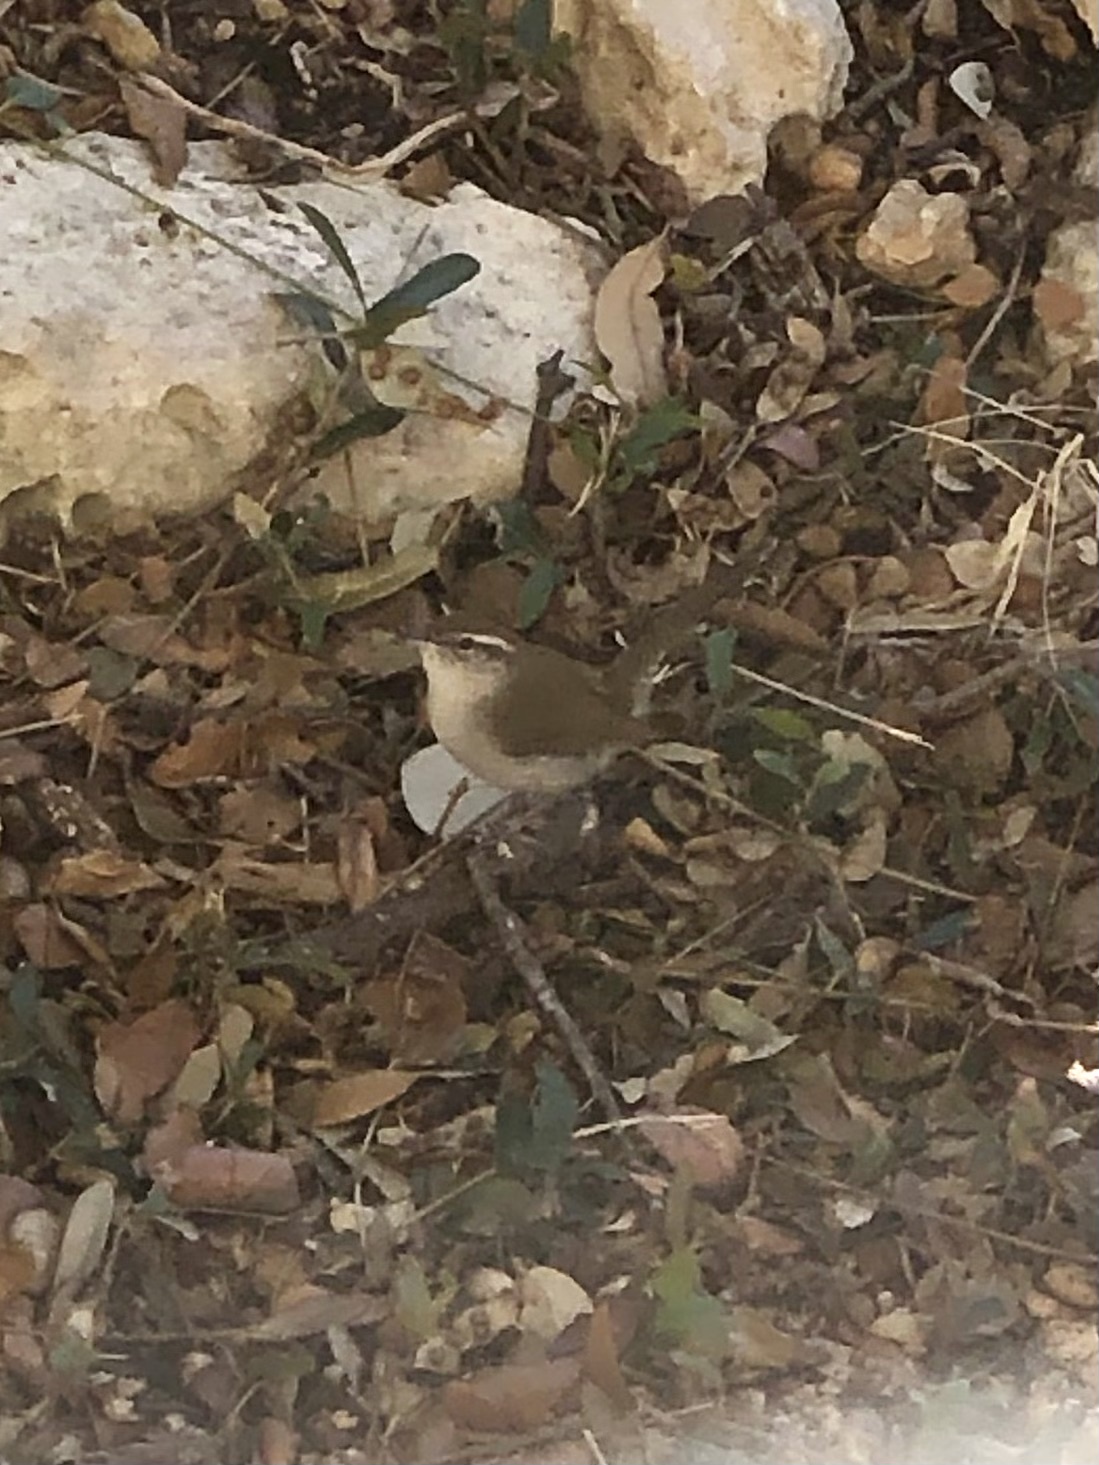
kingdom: Animalia
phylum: Chordata
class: Aves
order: Passeriformes
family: Troglodytidae
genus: Thryomanes
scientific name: Thryomanes bewickii
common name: Bewick's wren
